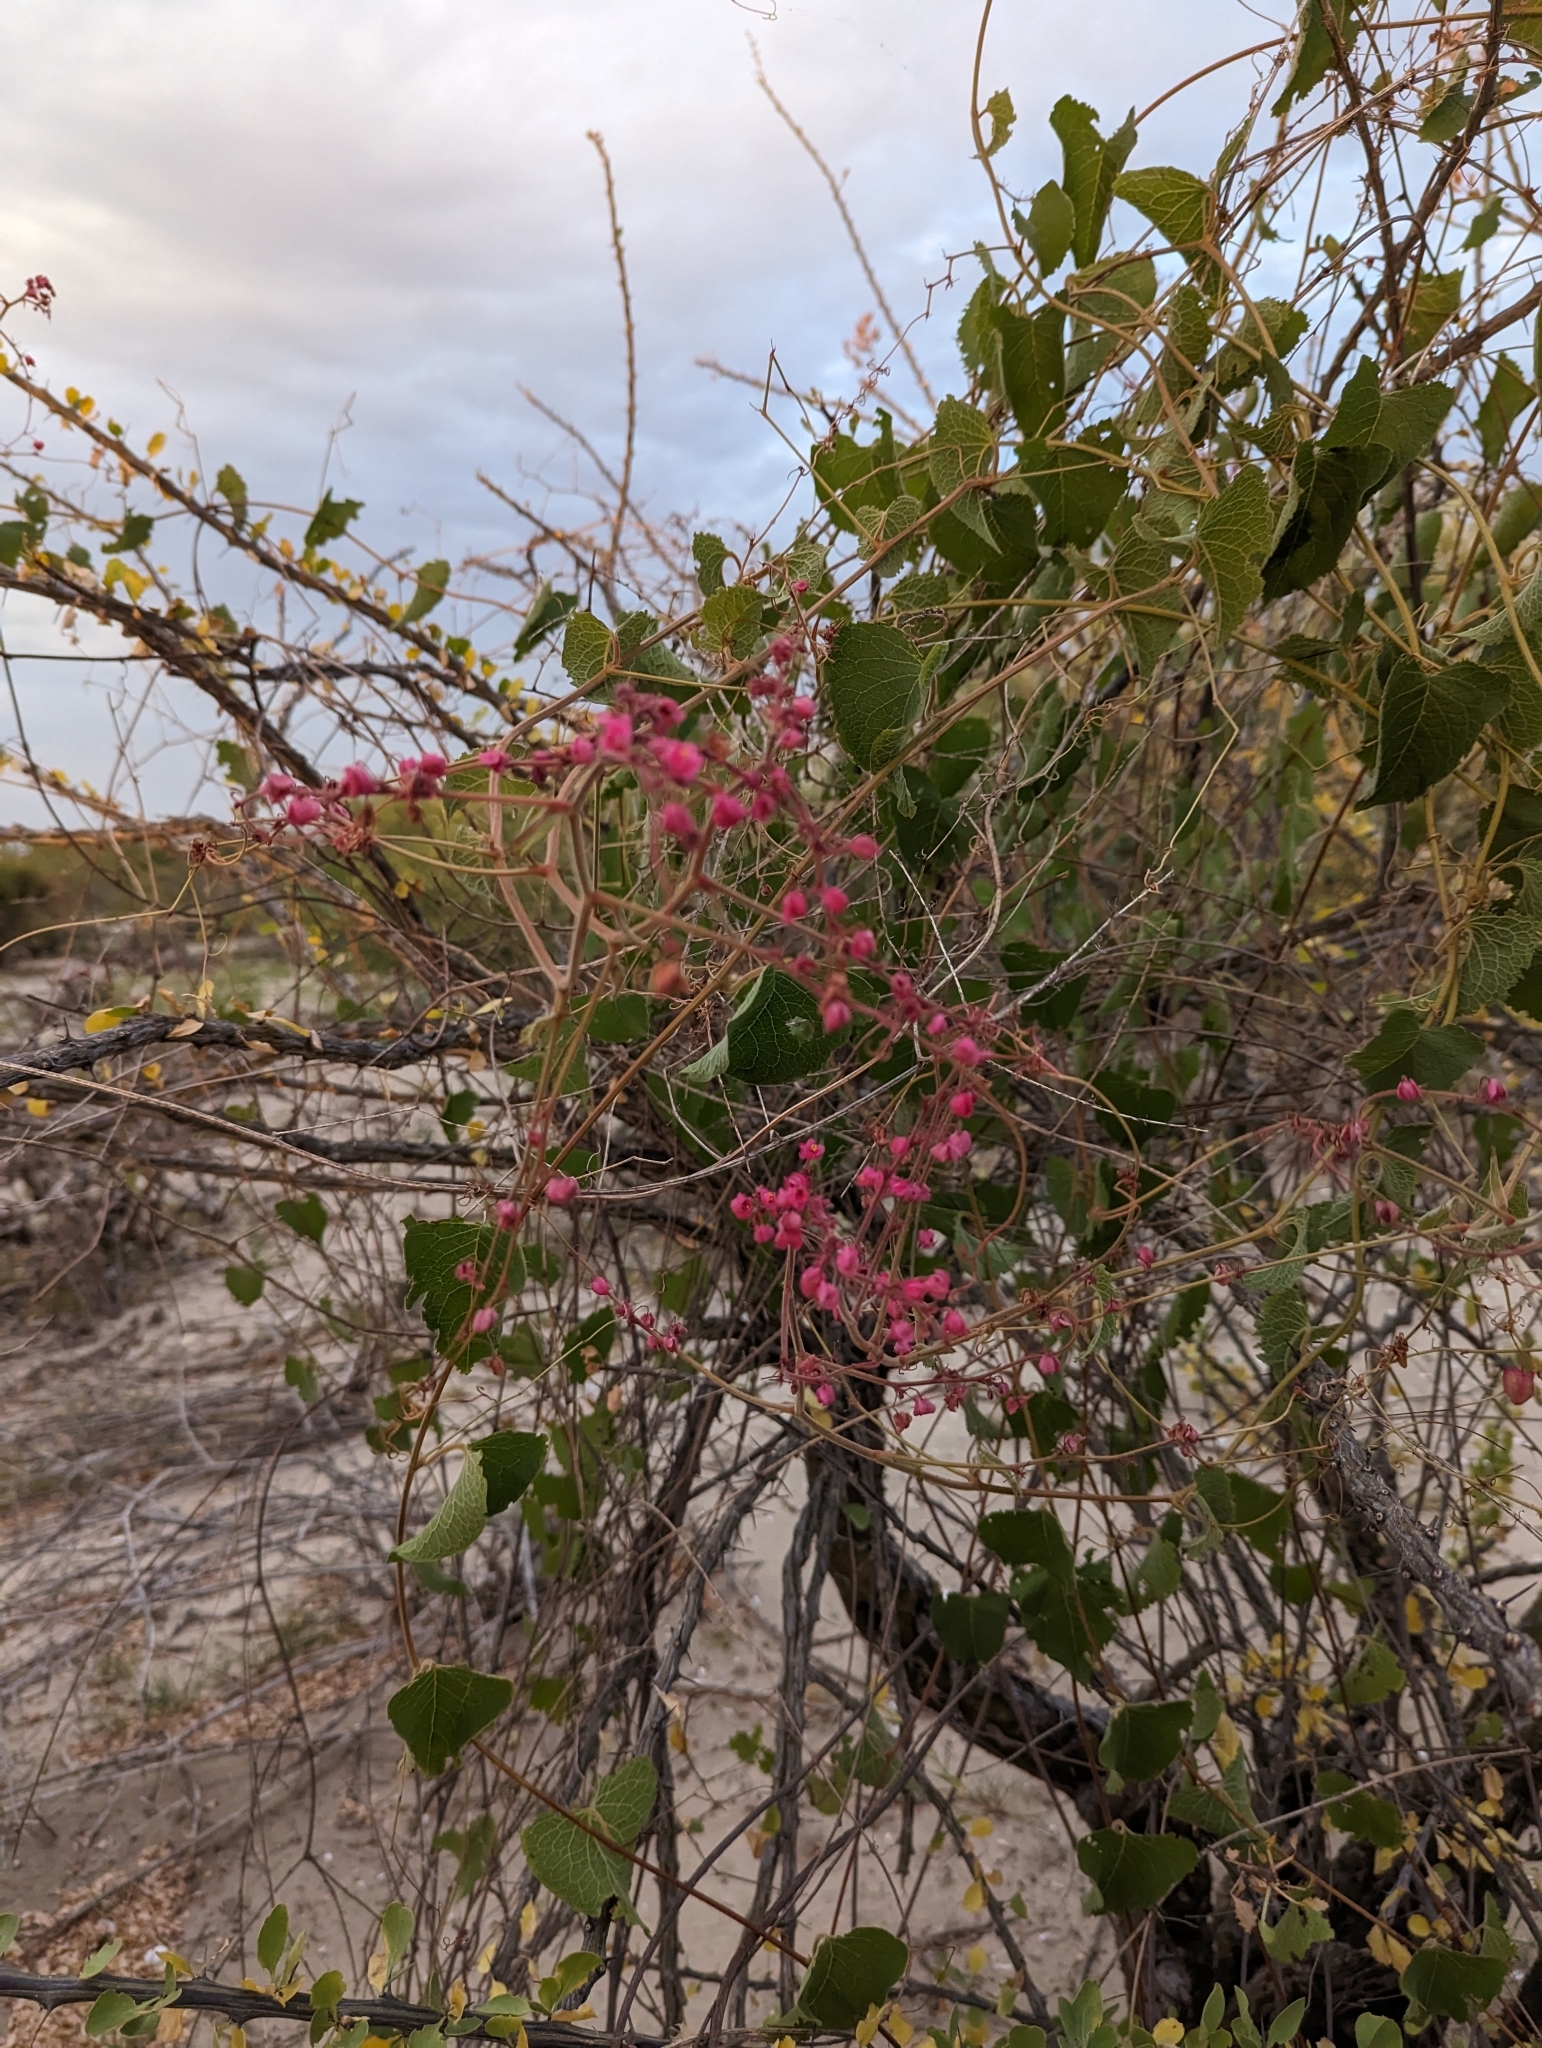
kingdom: Plantae
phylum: Tracheophyta
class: Magnoliopsida
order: Caryophyllales
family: Polygonaceae
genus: Antigonon
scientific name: Antigonon leptopus
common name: Coral vine
